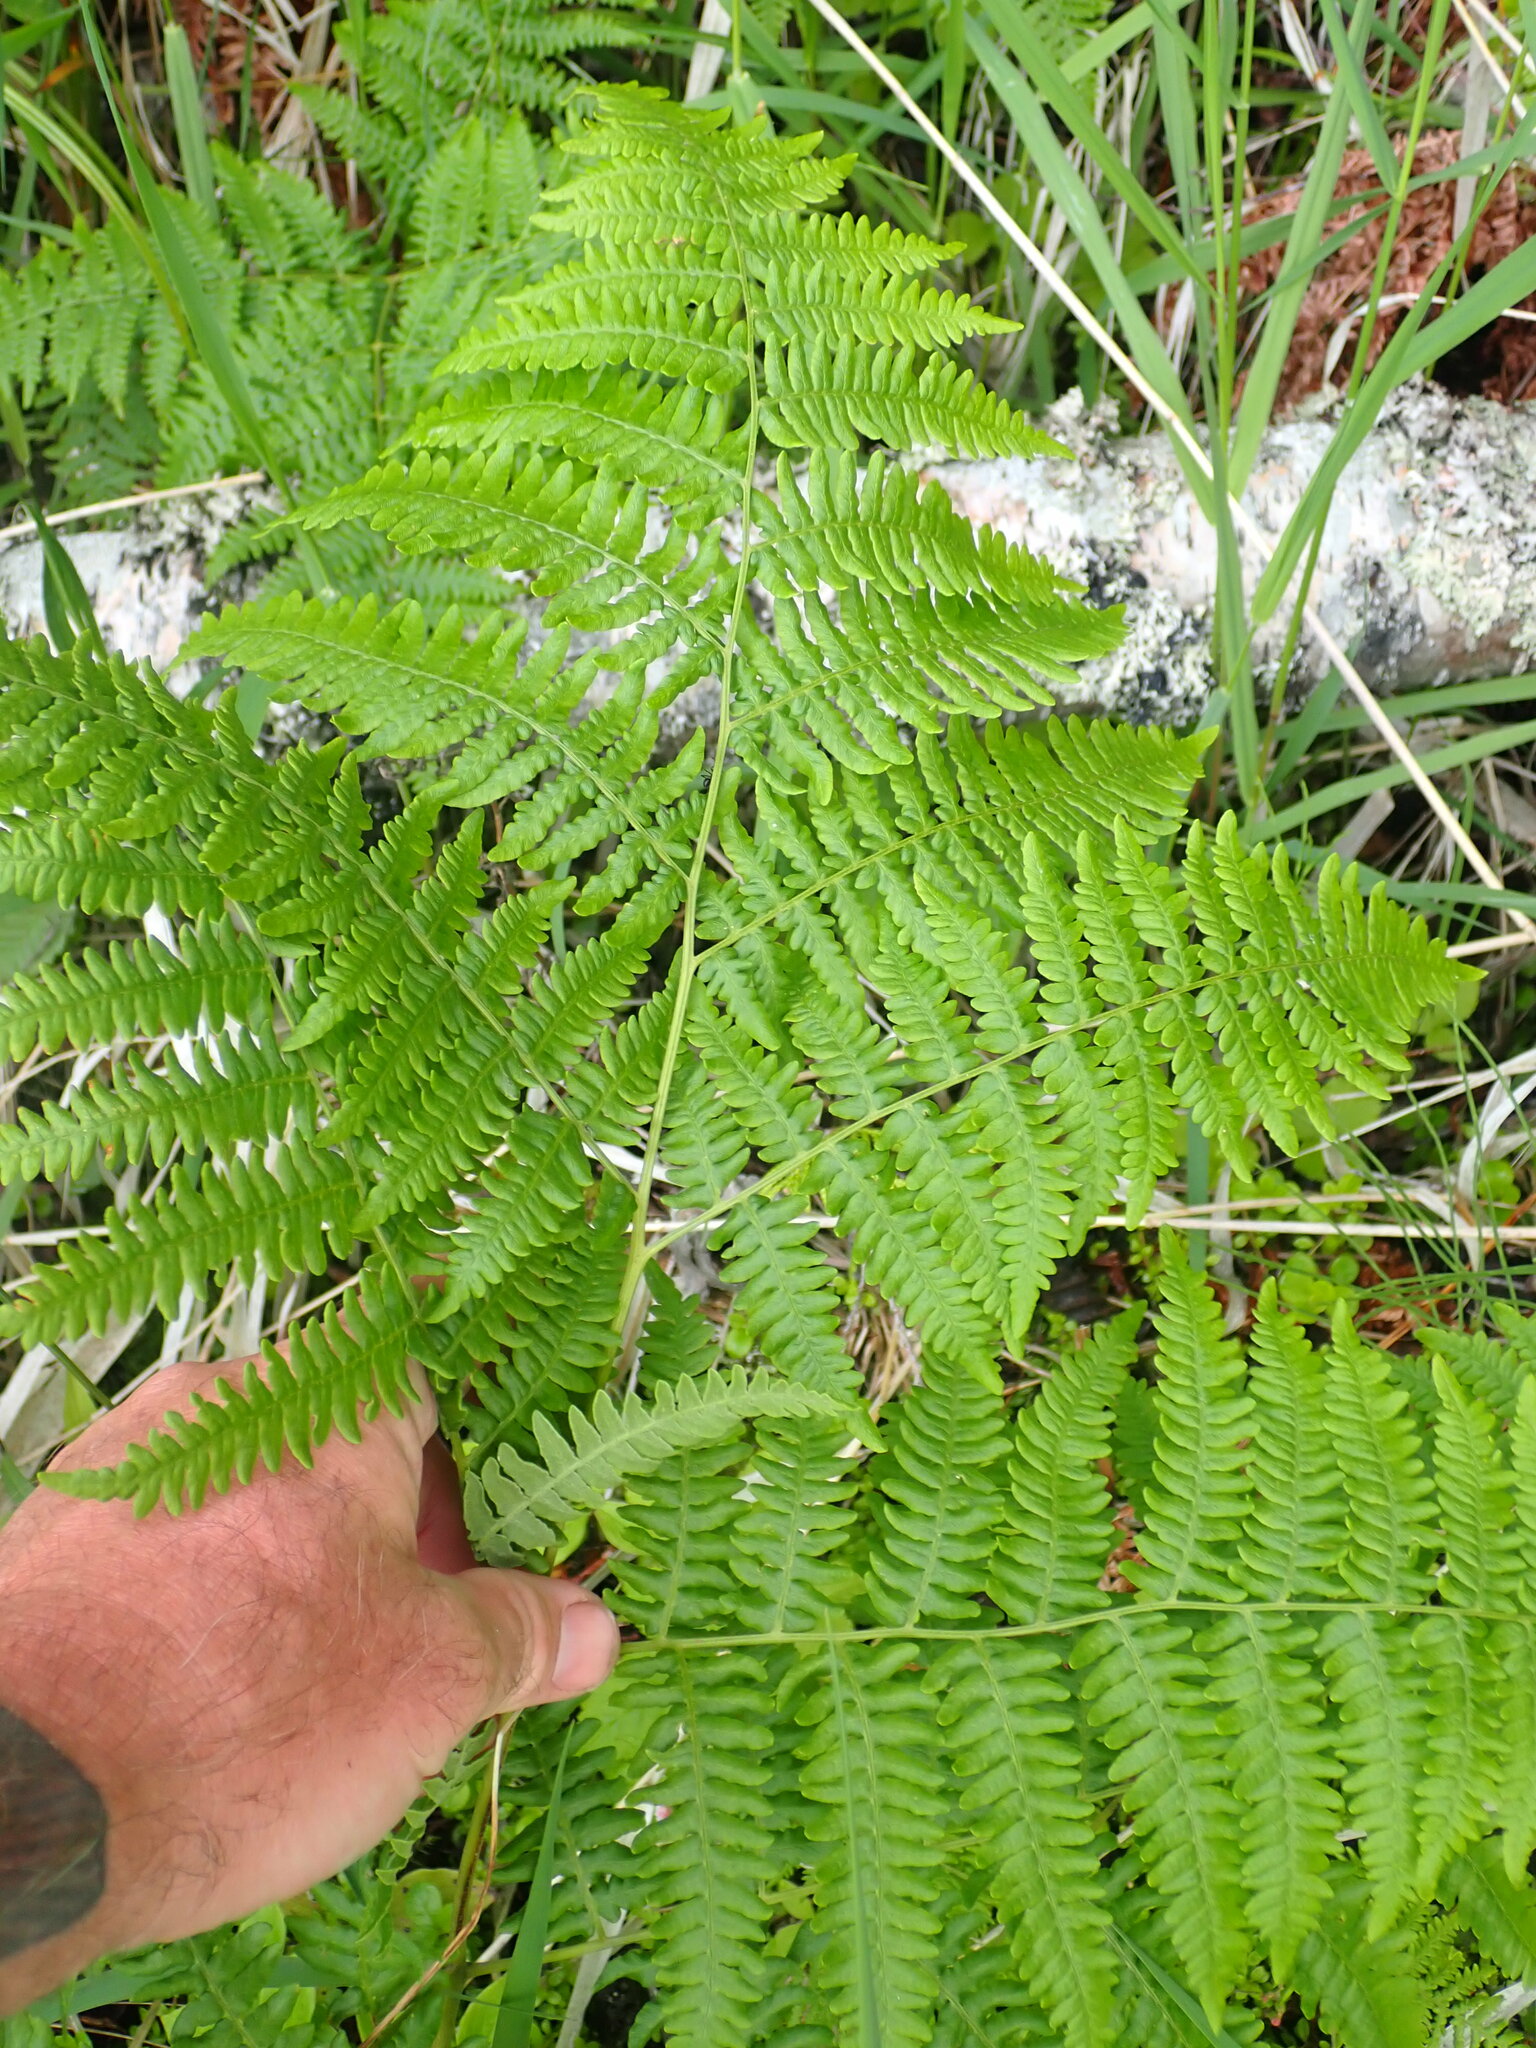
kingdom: Plantae
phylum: Tracheophyta
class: Polypodiopsida
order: Polypodiales
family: Dennstaedtiaceae
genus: Pteridium
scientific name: Pteridium aquilinum
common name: Bracken
